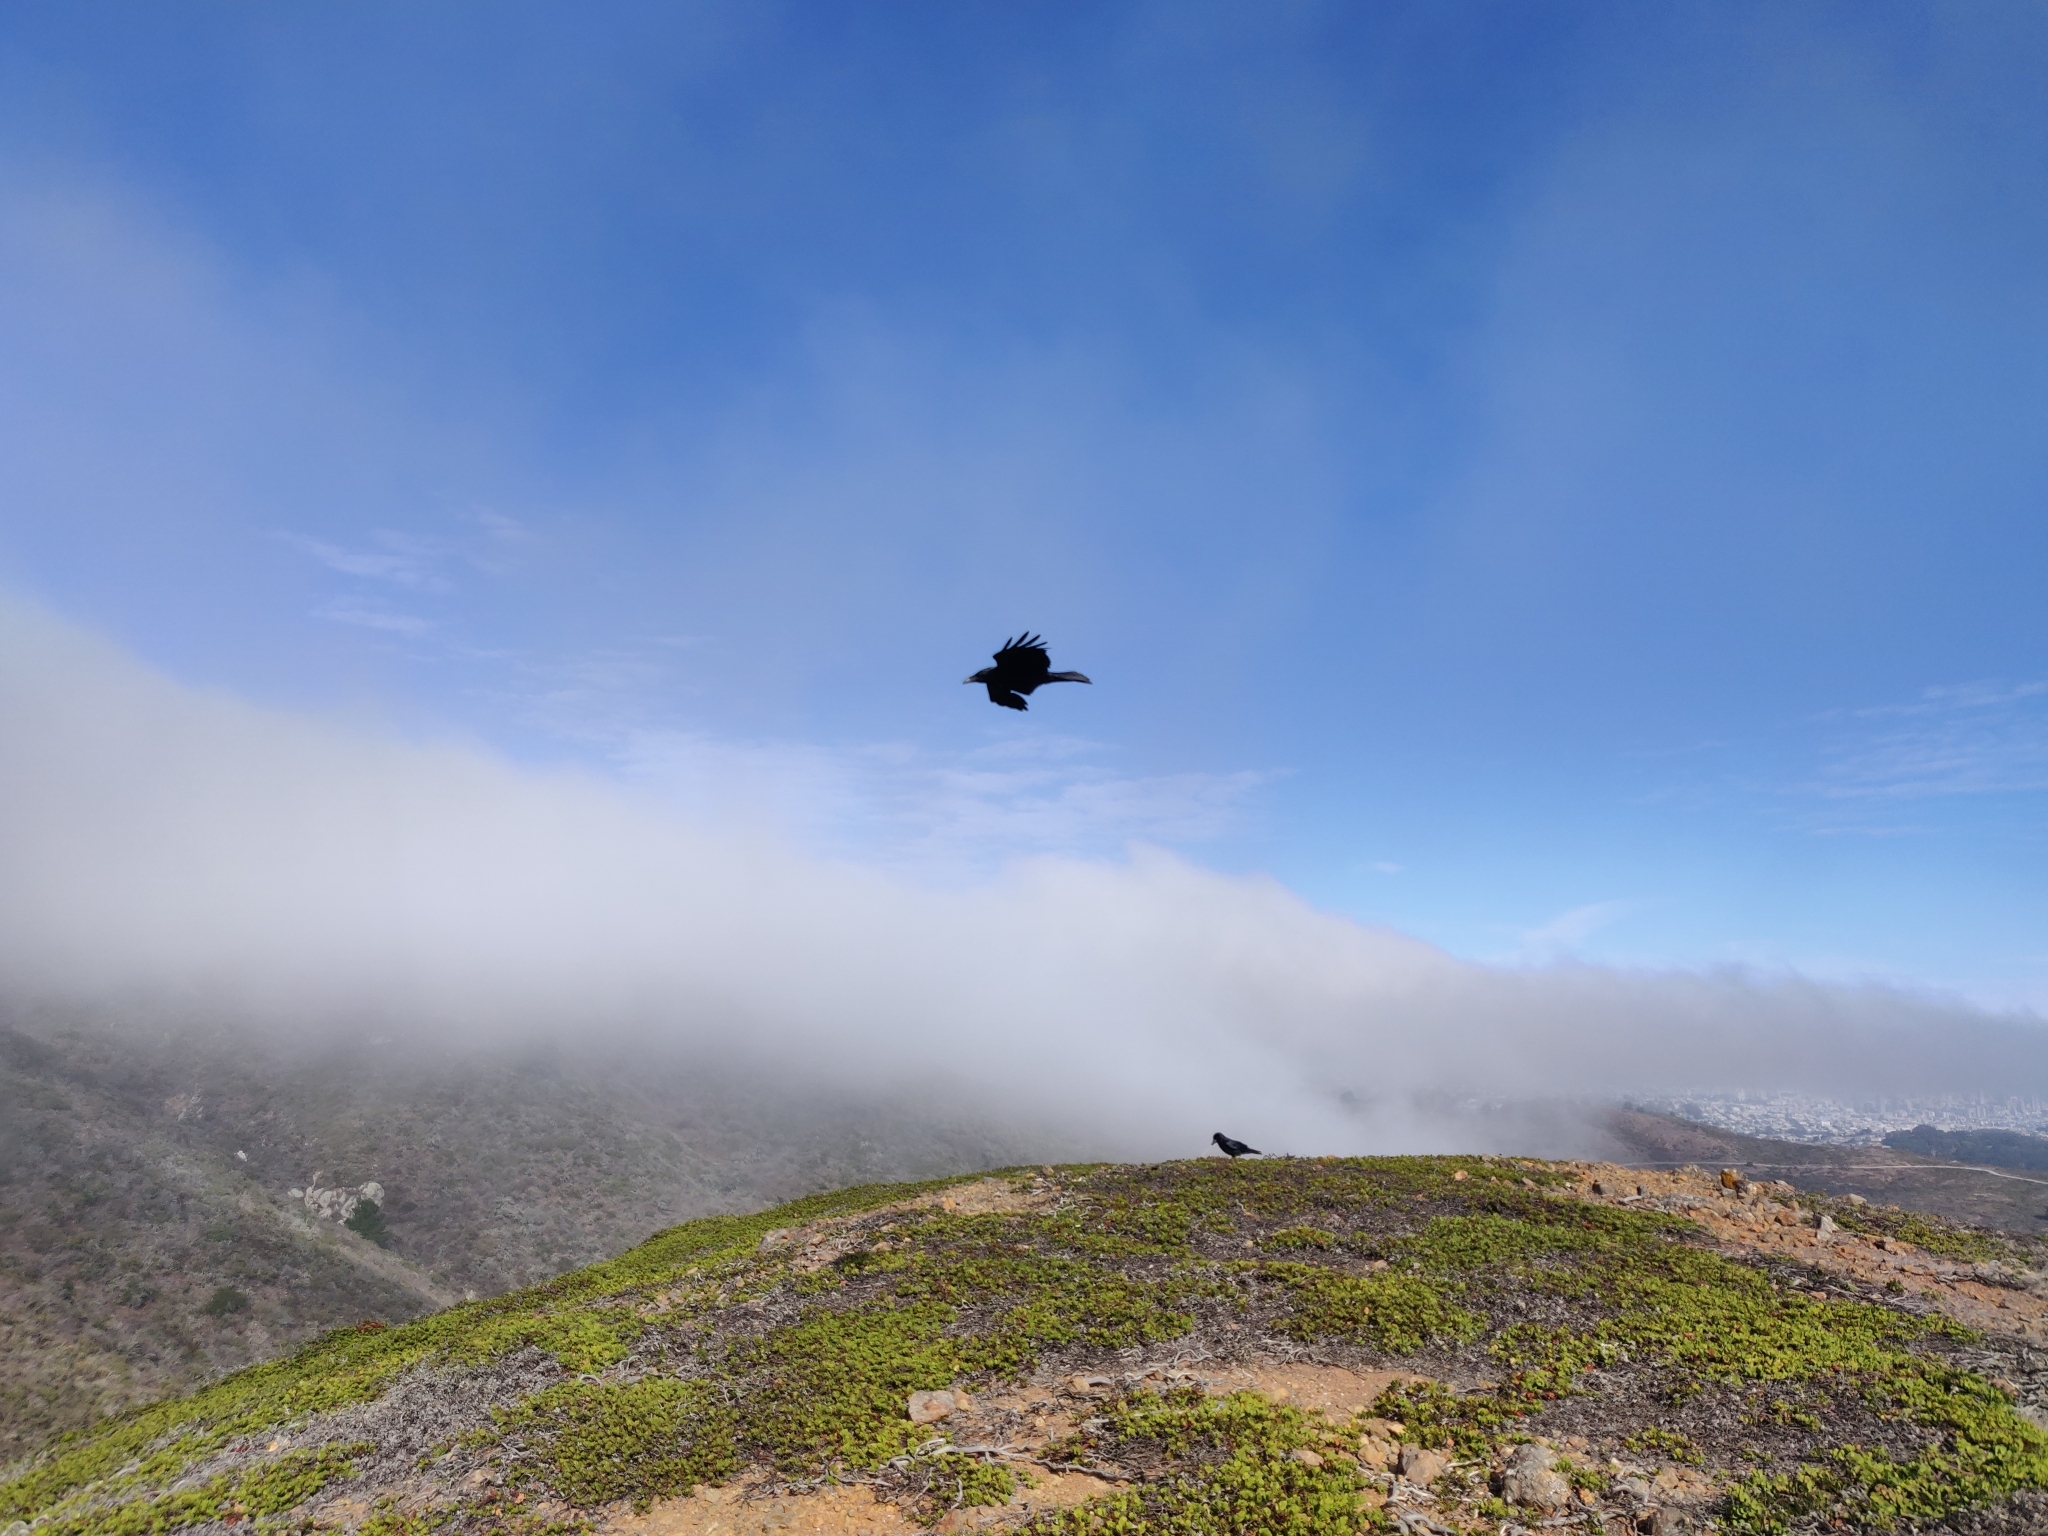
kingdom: Animalia
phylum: Chordata
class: Aves
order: Passeriformes
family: Corvidae
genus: Corvus
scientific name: Corvus corax
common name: Common raven
